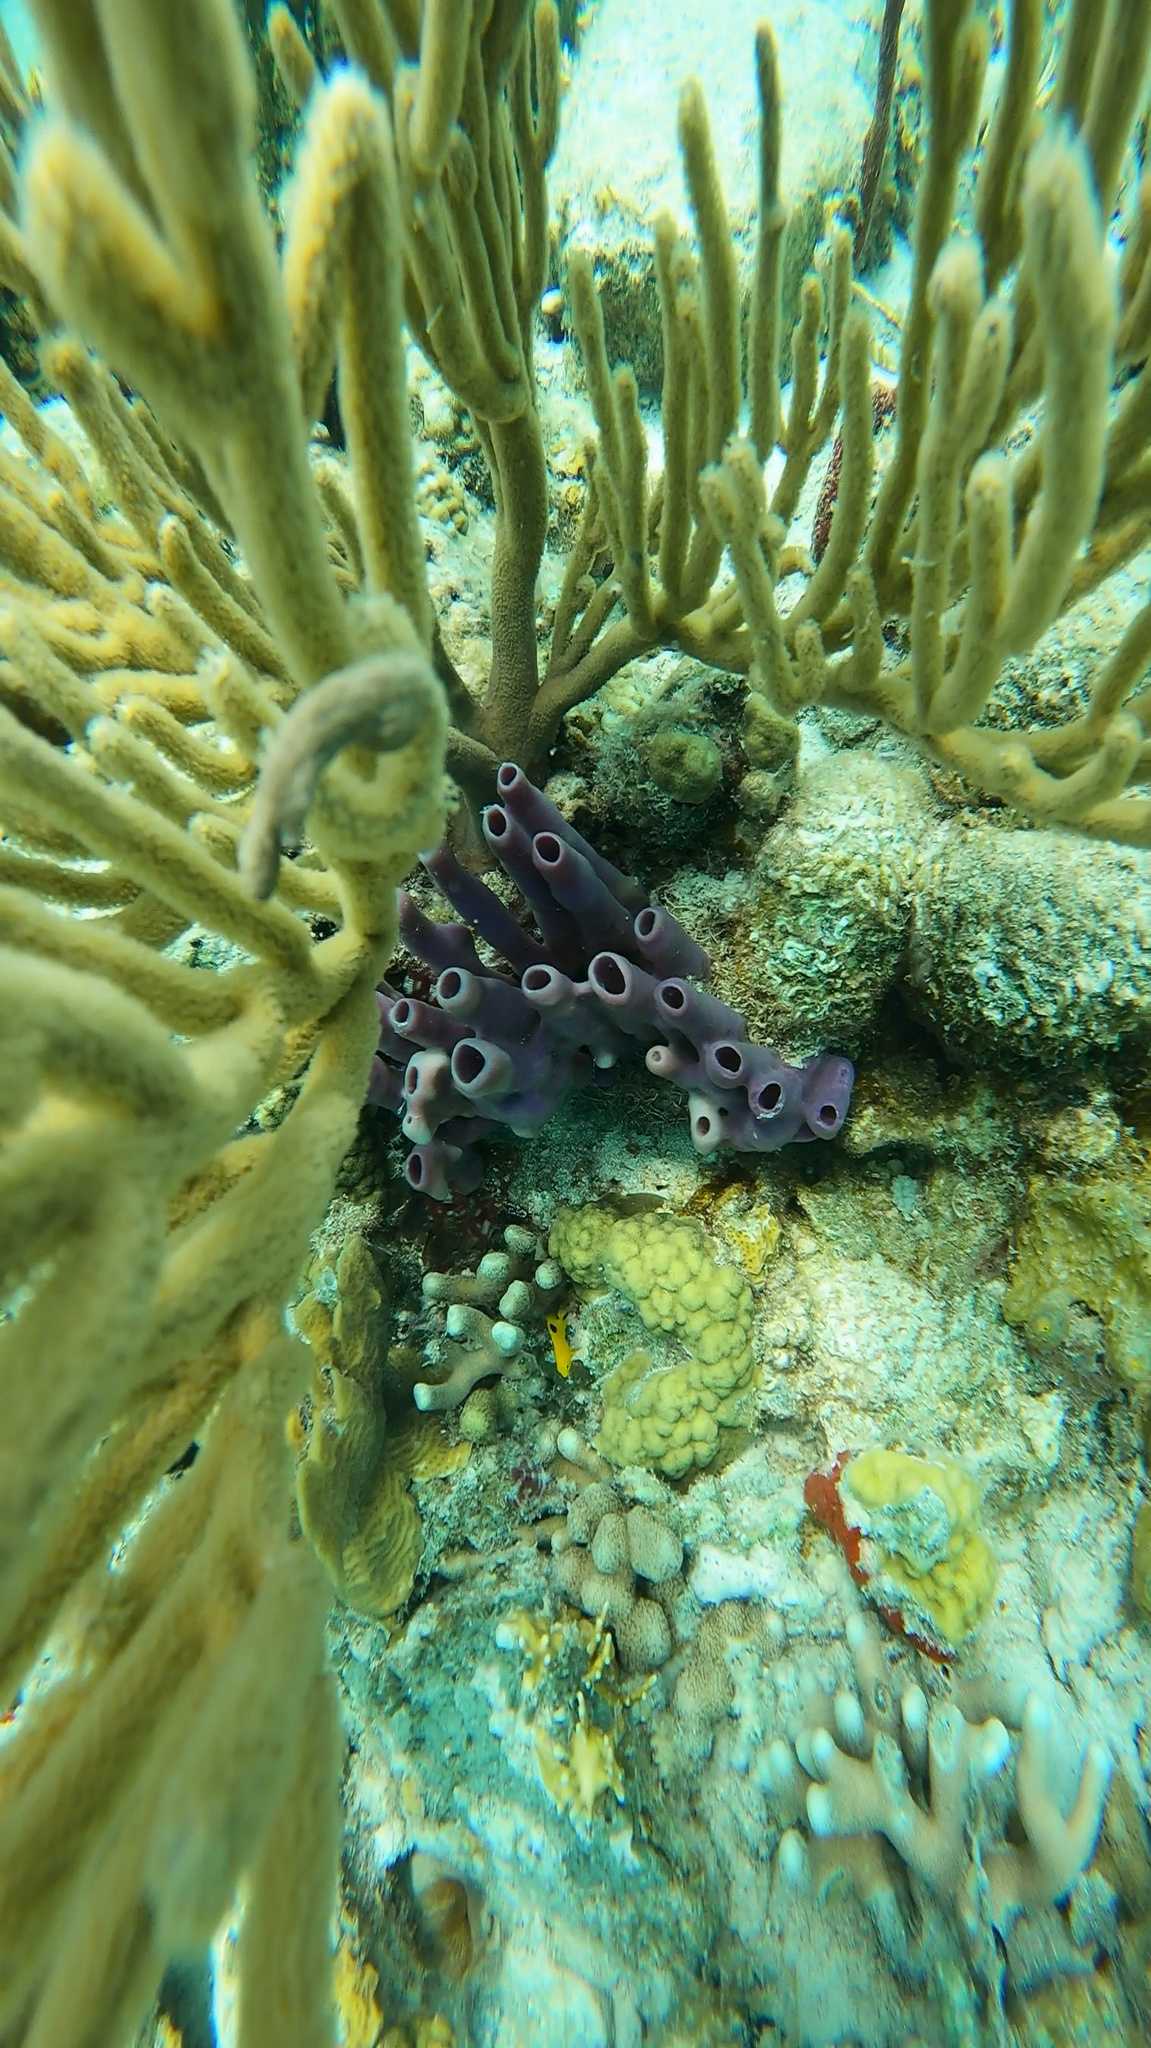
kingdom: Animalia
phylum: Porifera
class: Demospongiae
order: Haplosclerida
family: Callyspongiidae
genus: Callyspongia
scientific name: Callyspongia fallax
